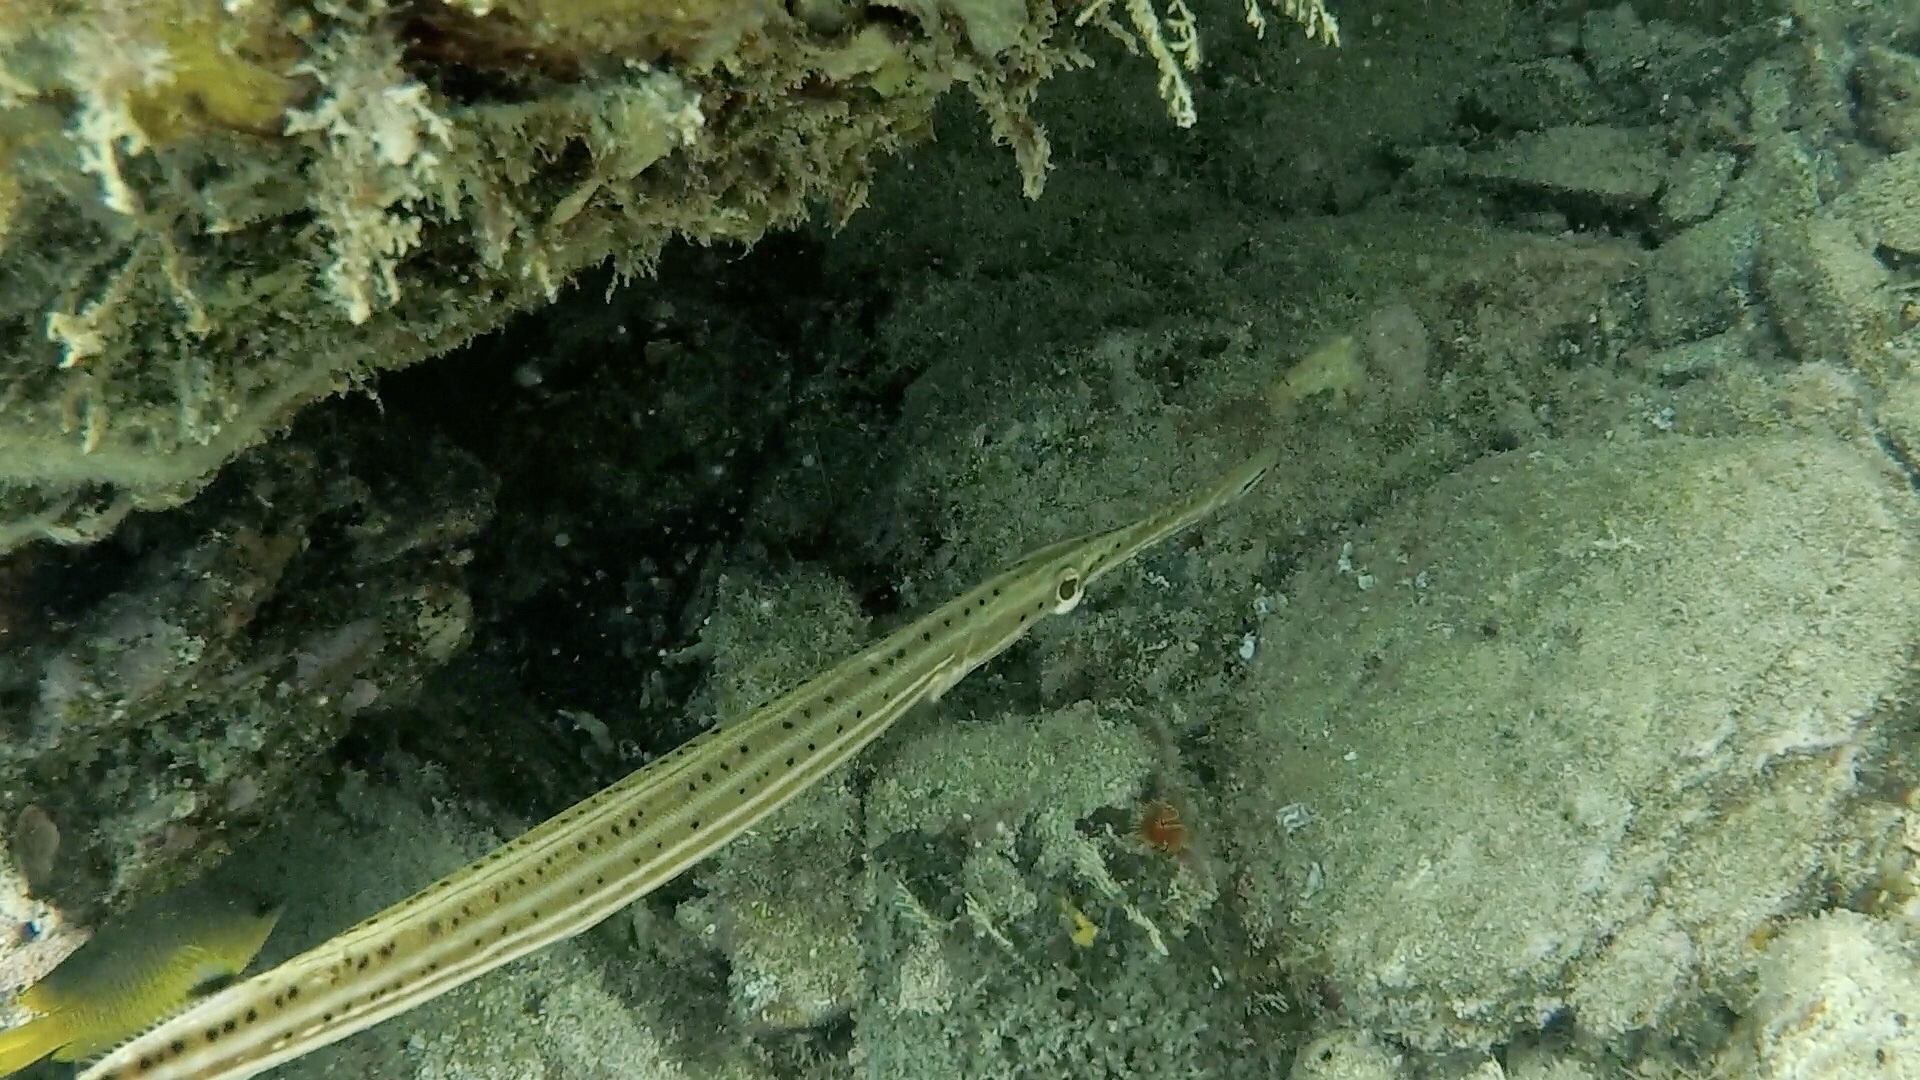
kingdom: Animalia
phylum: Chordata
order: Syngnathiformes
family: Aulostomidae
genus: Aulostomus
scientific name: Aulostomus maculatus
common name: West atlantic trumpetfish
